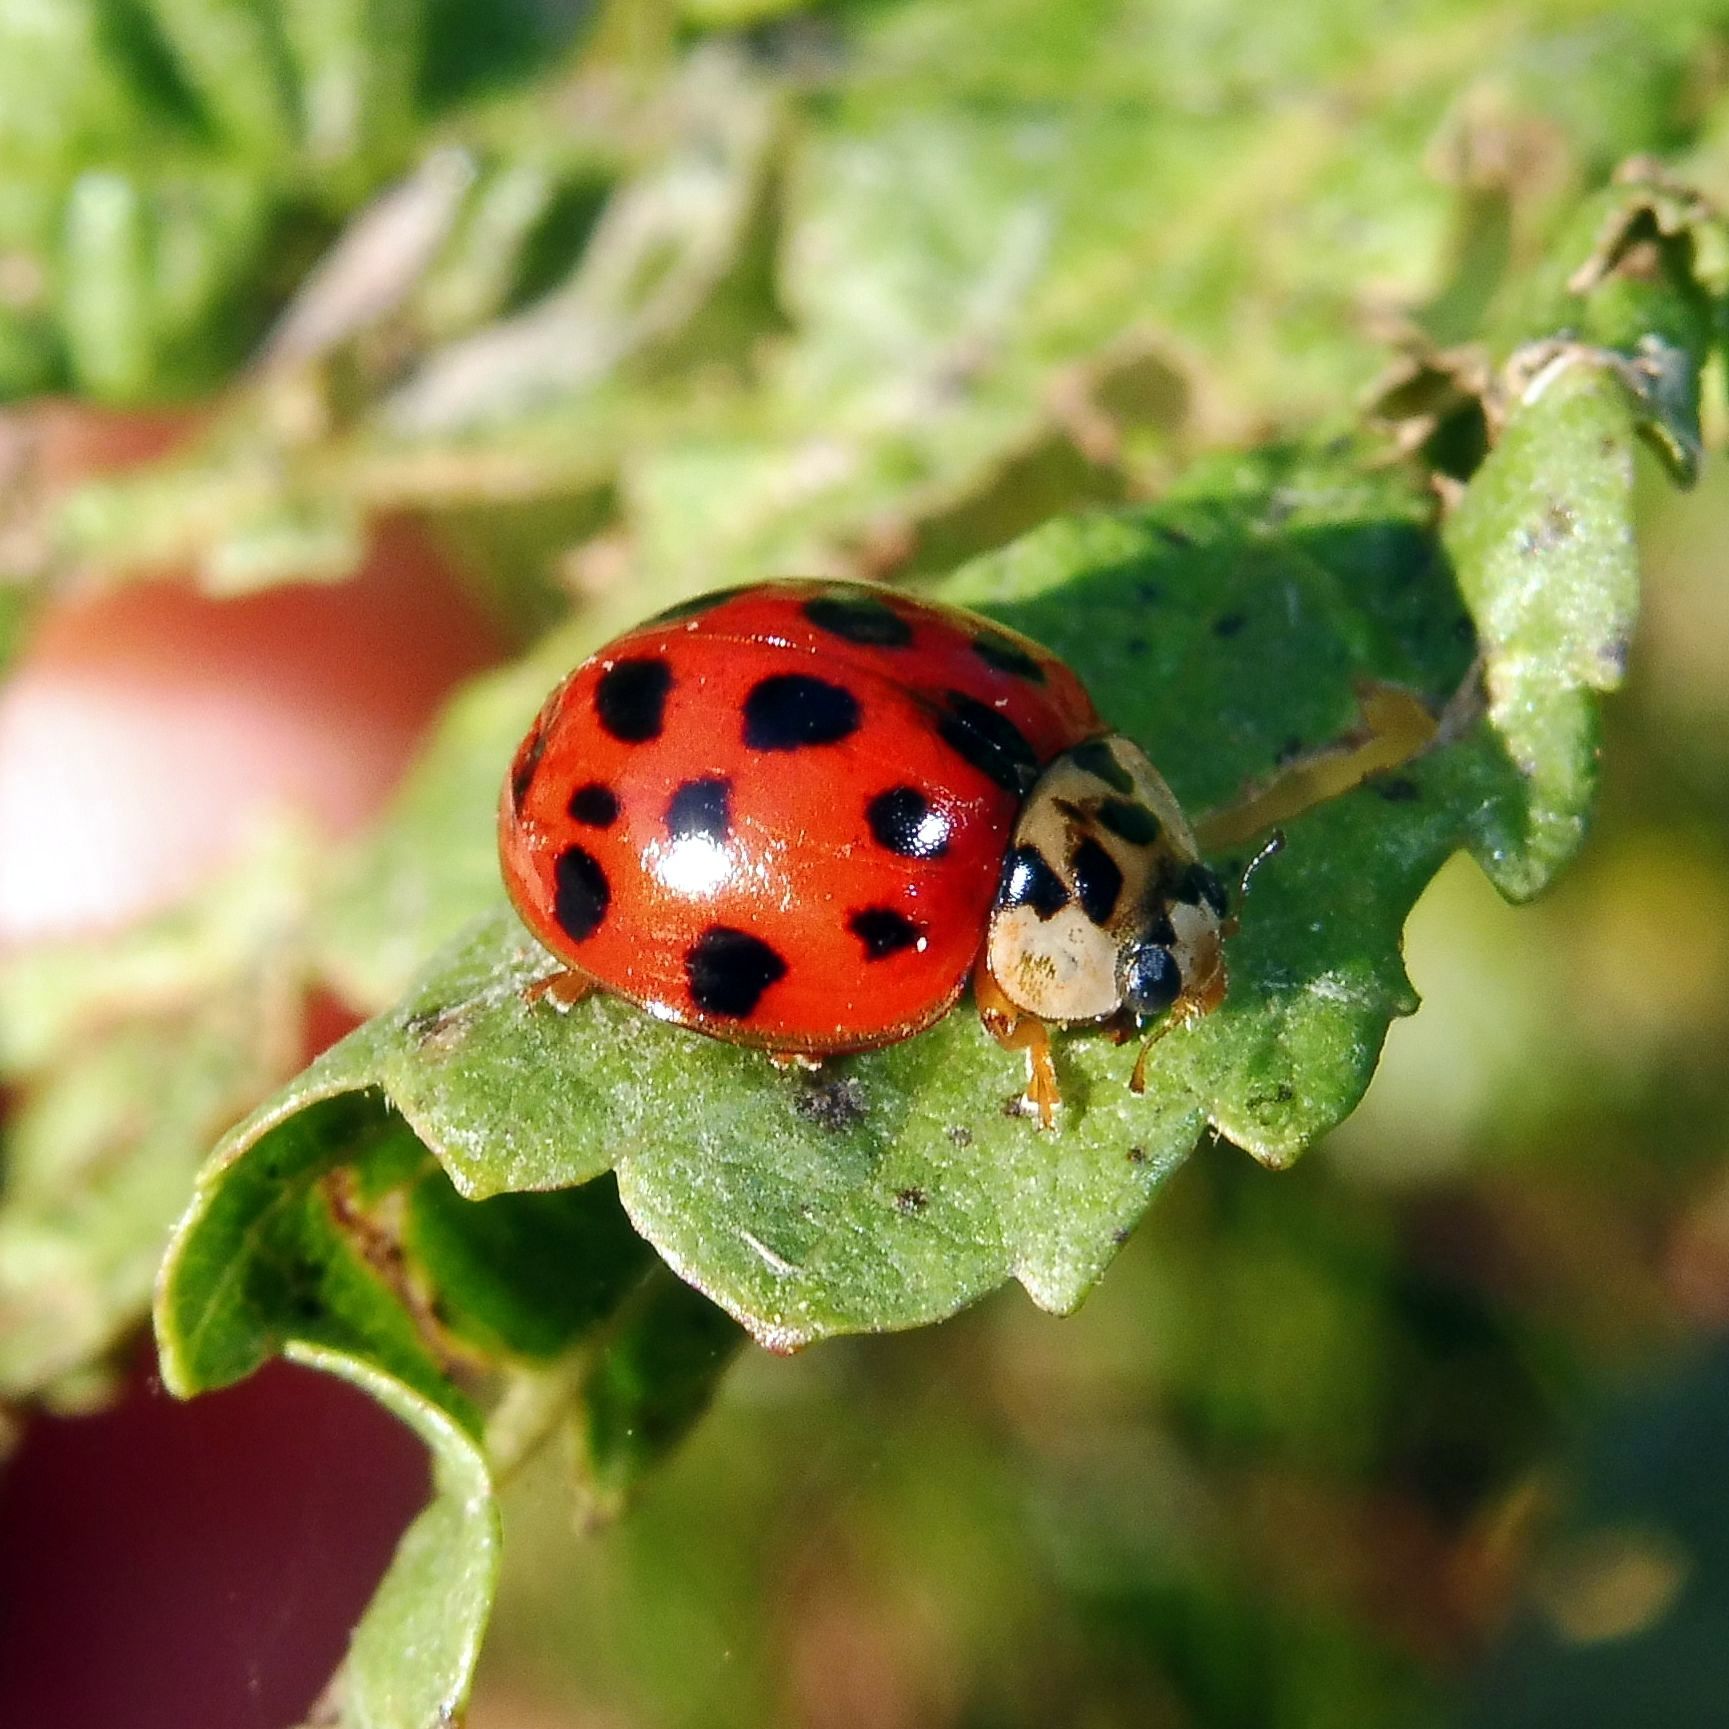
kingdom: Animalia
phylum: Arthropoda
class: Insecta
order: Coleoptera
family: Coccinellidae
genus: Harmonia
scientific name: Harmonia axyridis
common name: Harlequin ladybird
